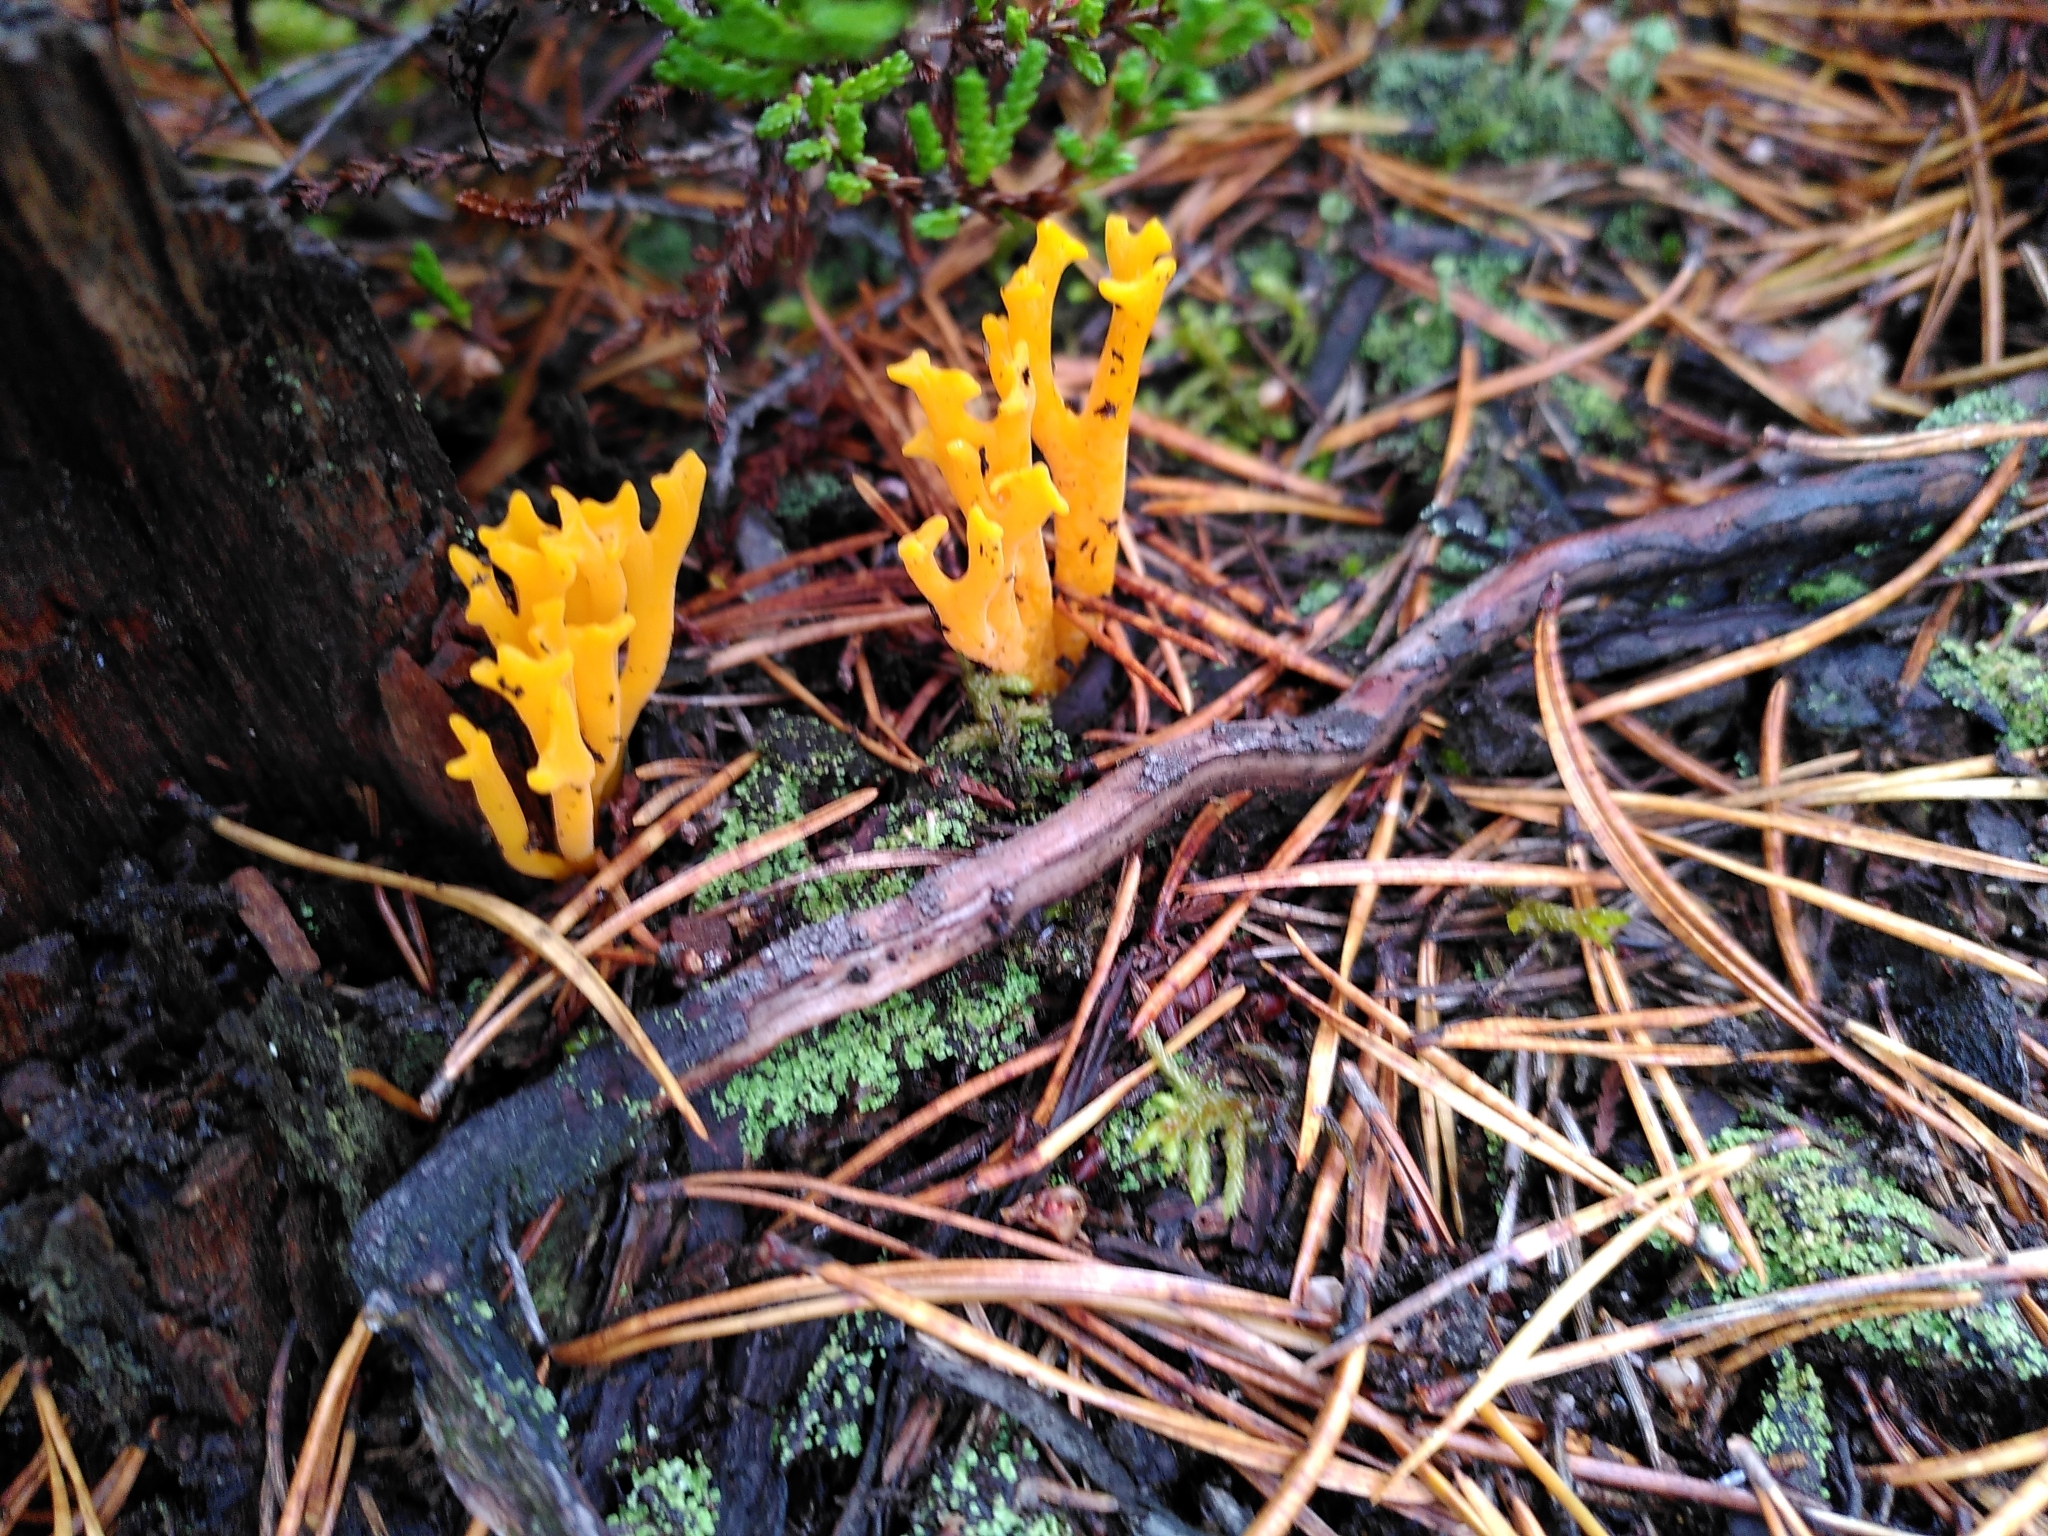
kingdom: Fungi
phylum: Basidiomycota
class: Dacrymycetes
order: Dacrymycetales
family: Dacrymycetaceae
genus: Calocera
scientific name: Calocera viscosa
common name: Yellow stagshorn
